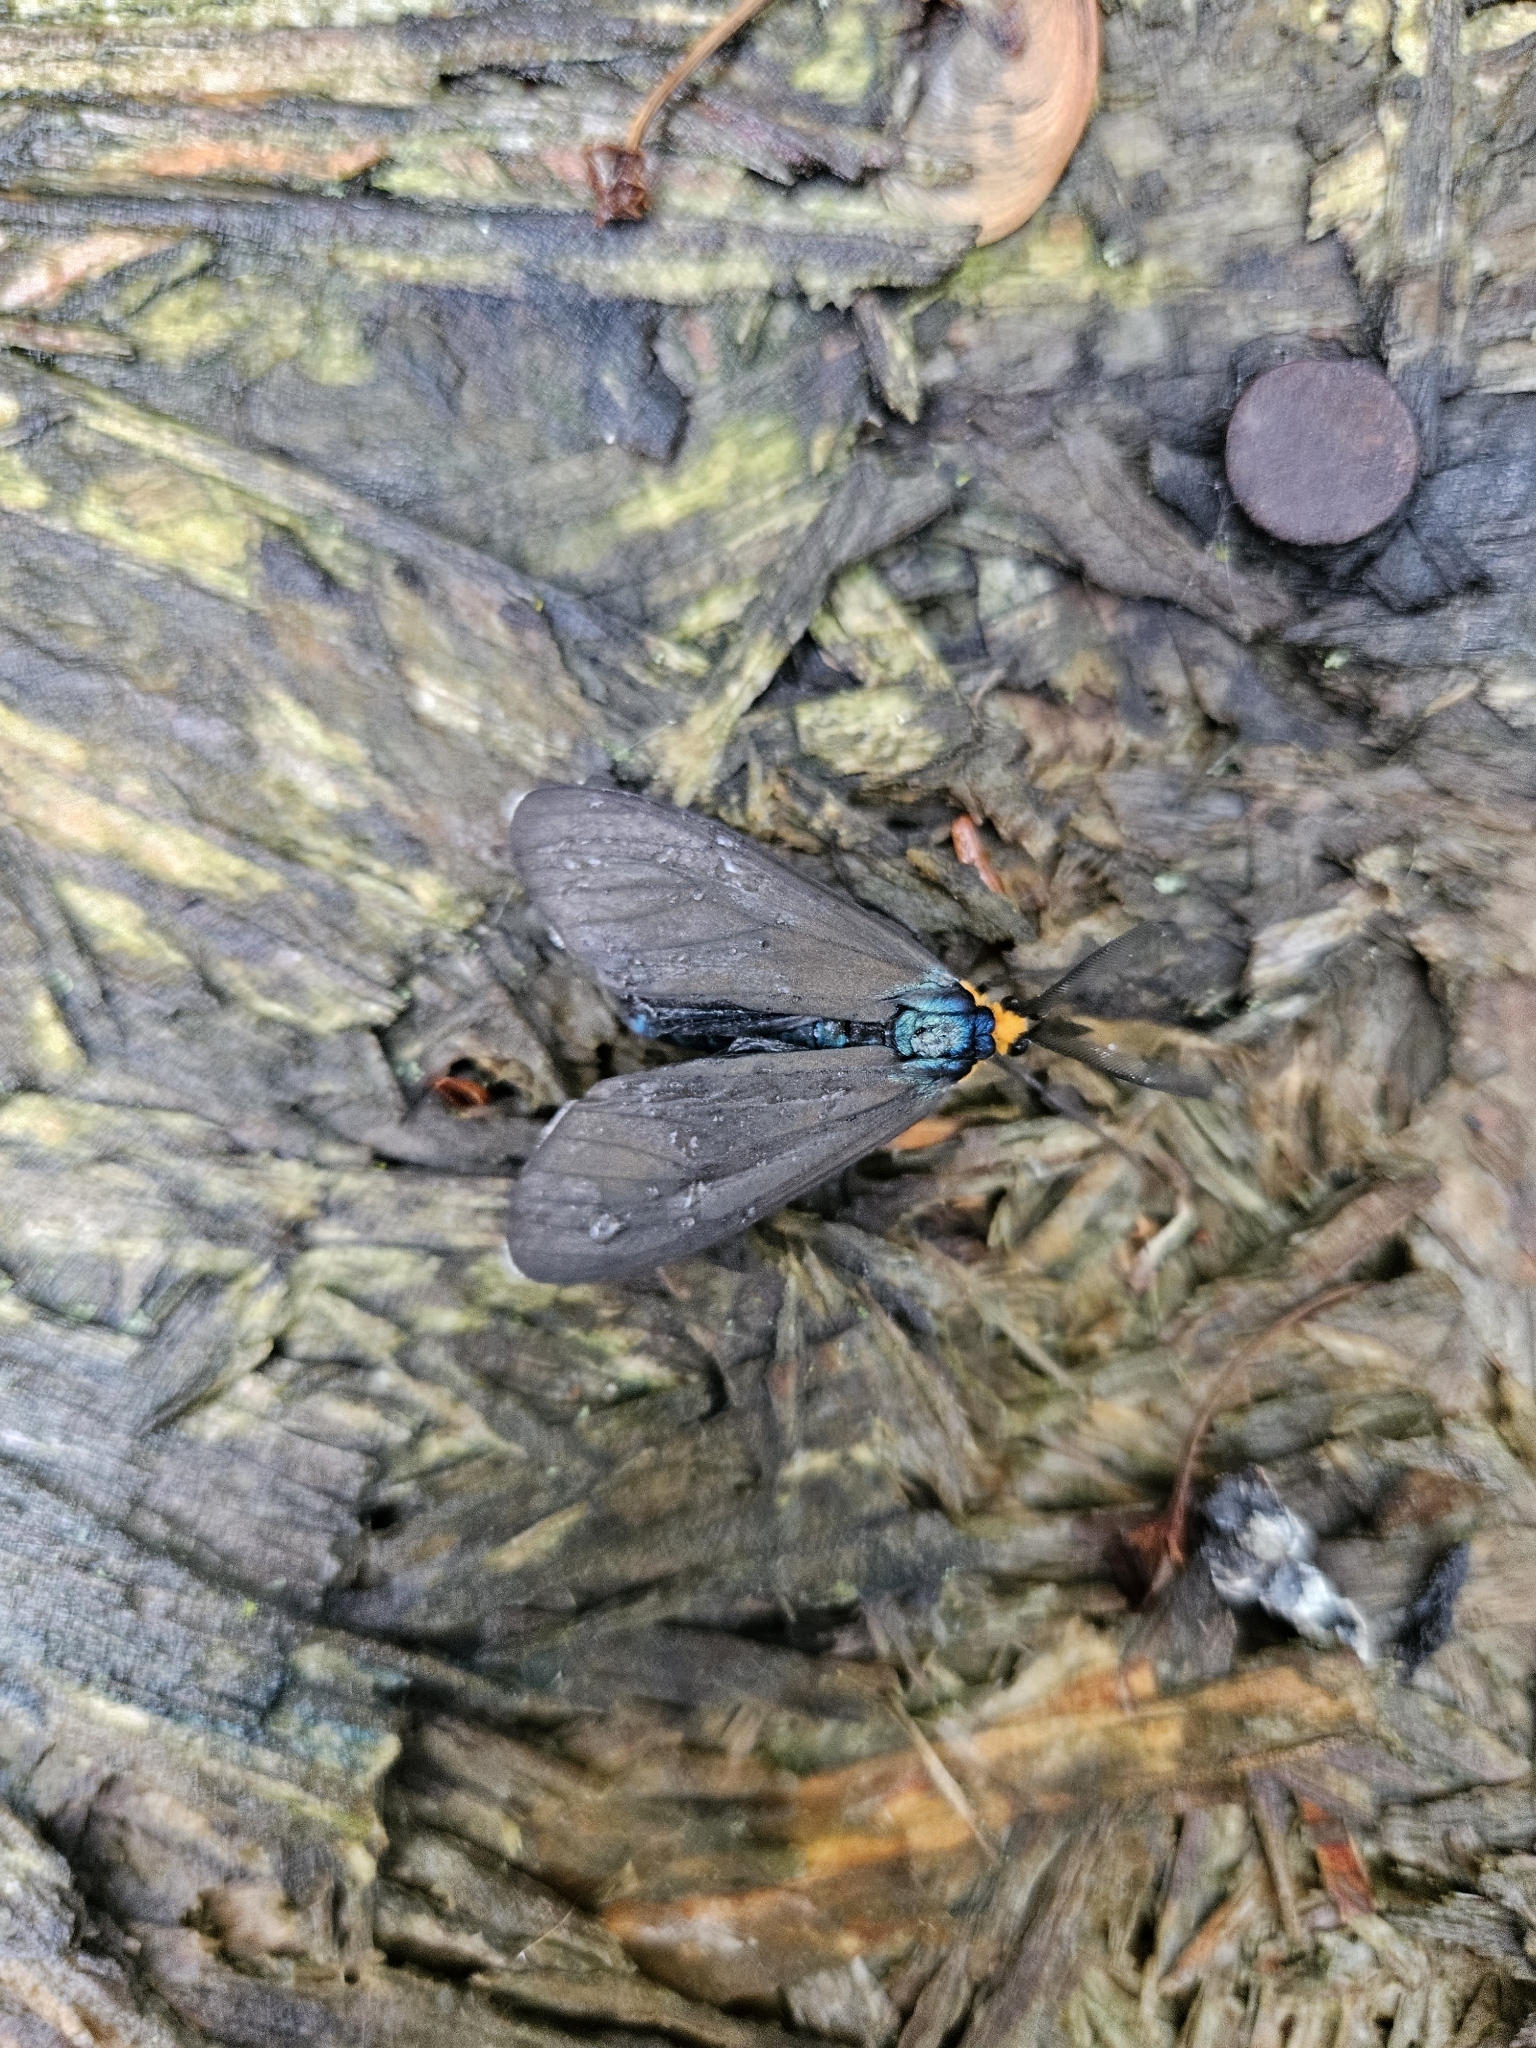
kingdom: Animalia
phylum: Arthropoda
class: Insecta
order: Lepidoptera
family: Erebidae
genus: Ctenucha
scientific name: Ctenucha virginica
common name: Virginia ctenucha moth
